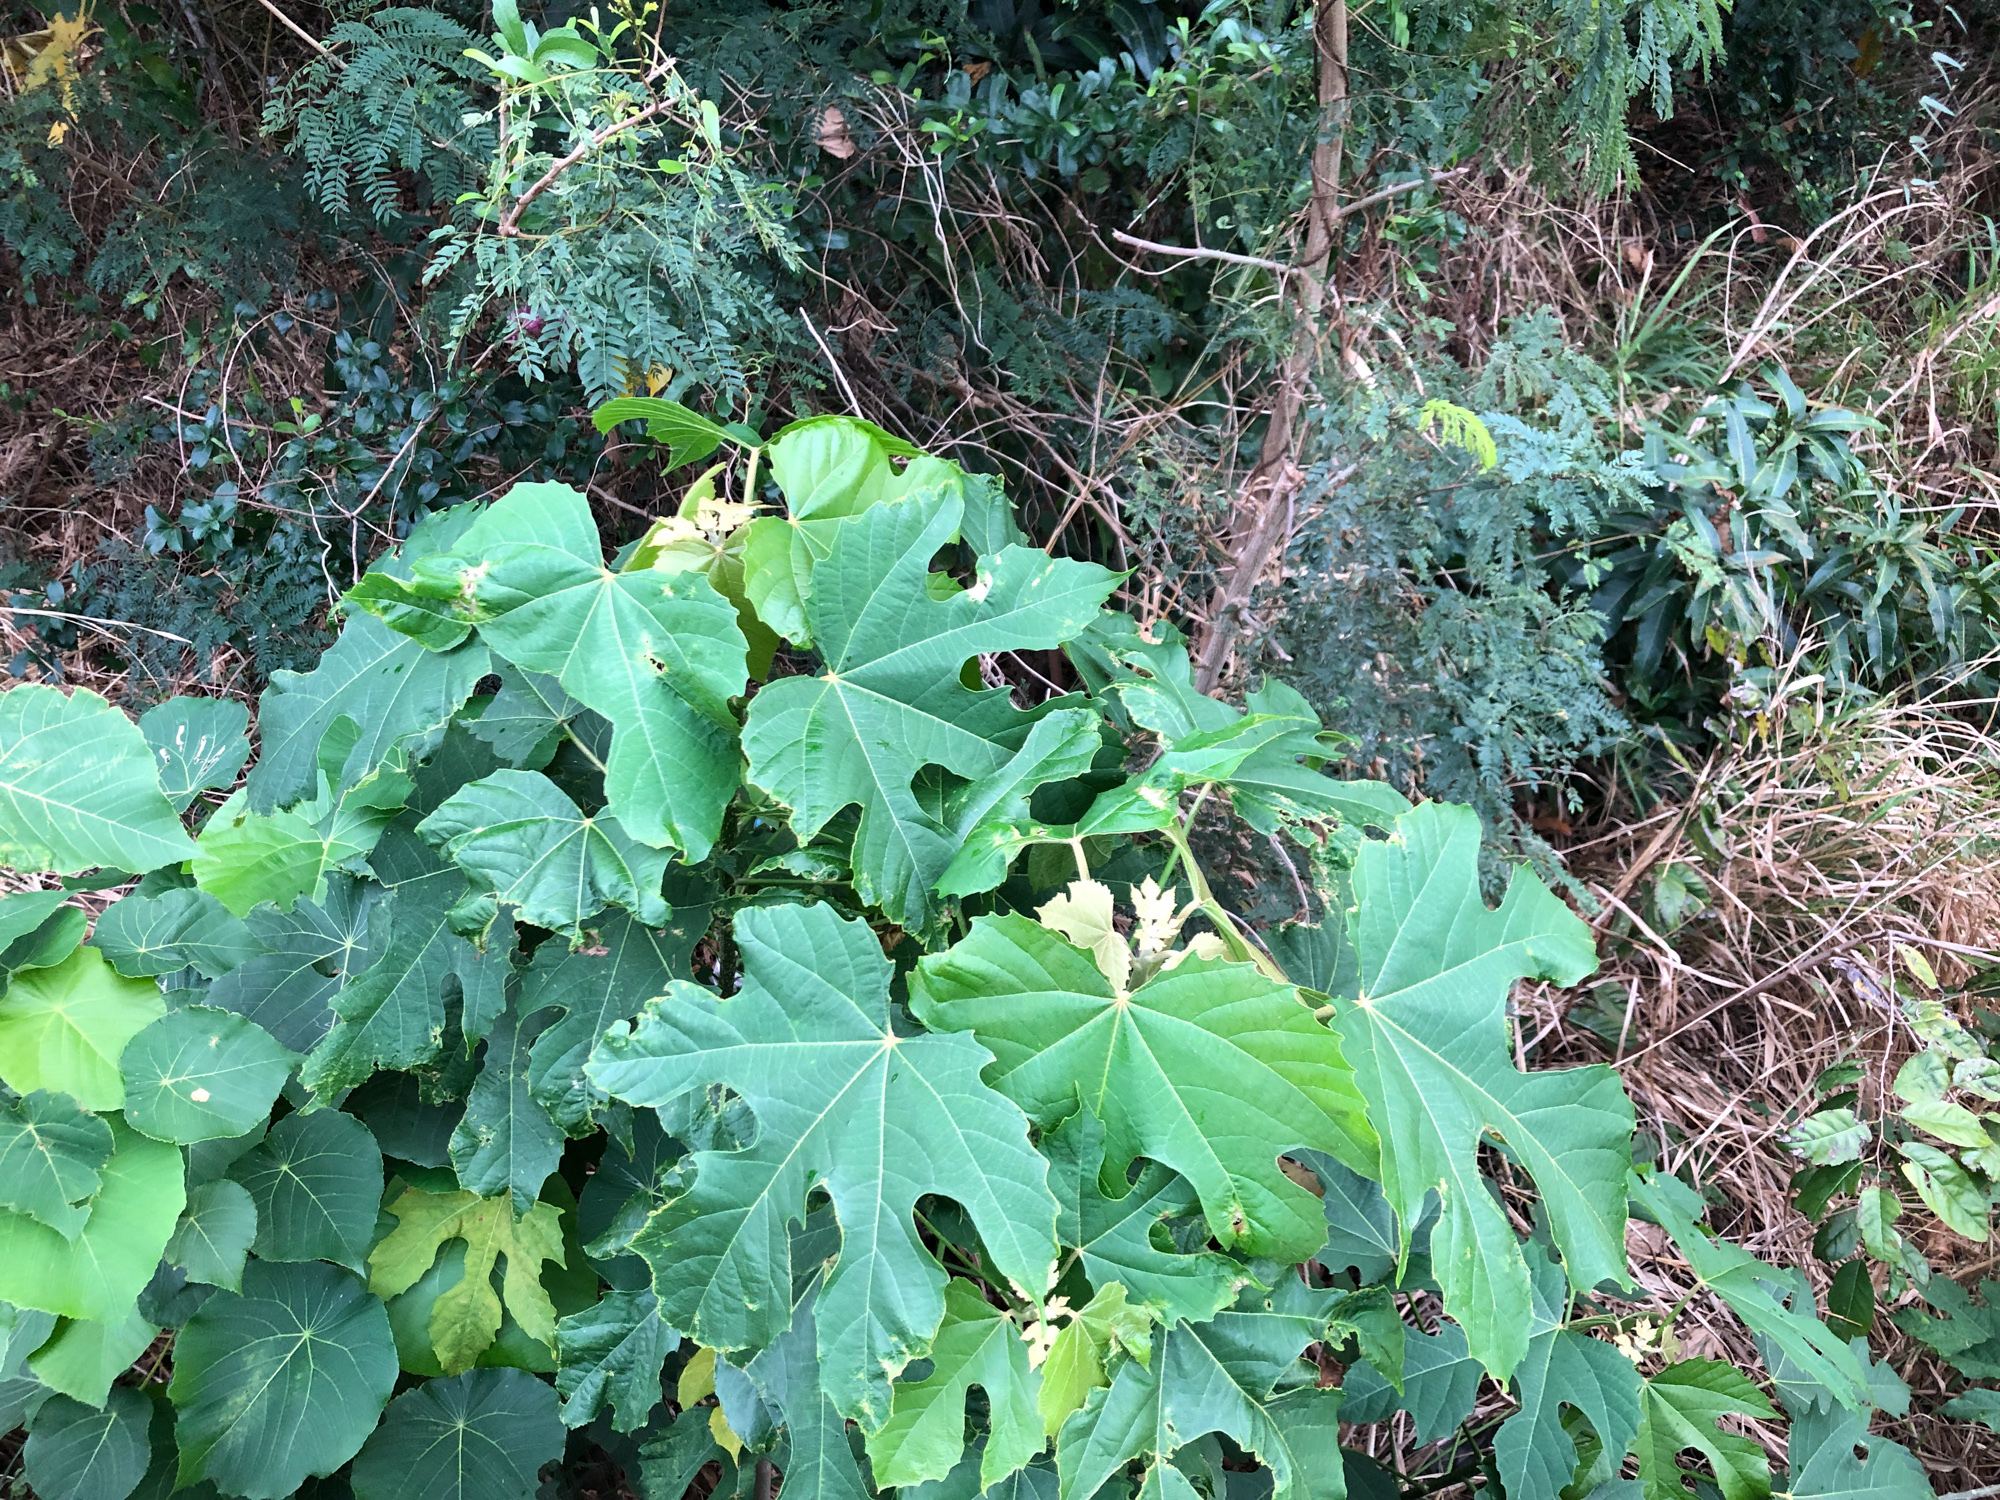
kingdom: Plantae
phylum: Tracheophyta
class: Magnoliopsida
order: Malpighiales
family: Euphorbiaceae
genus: Melanolepis
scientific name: Melanolepis multiglandulosa
